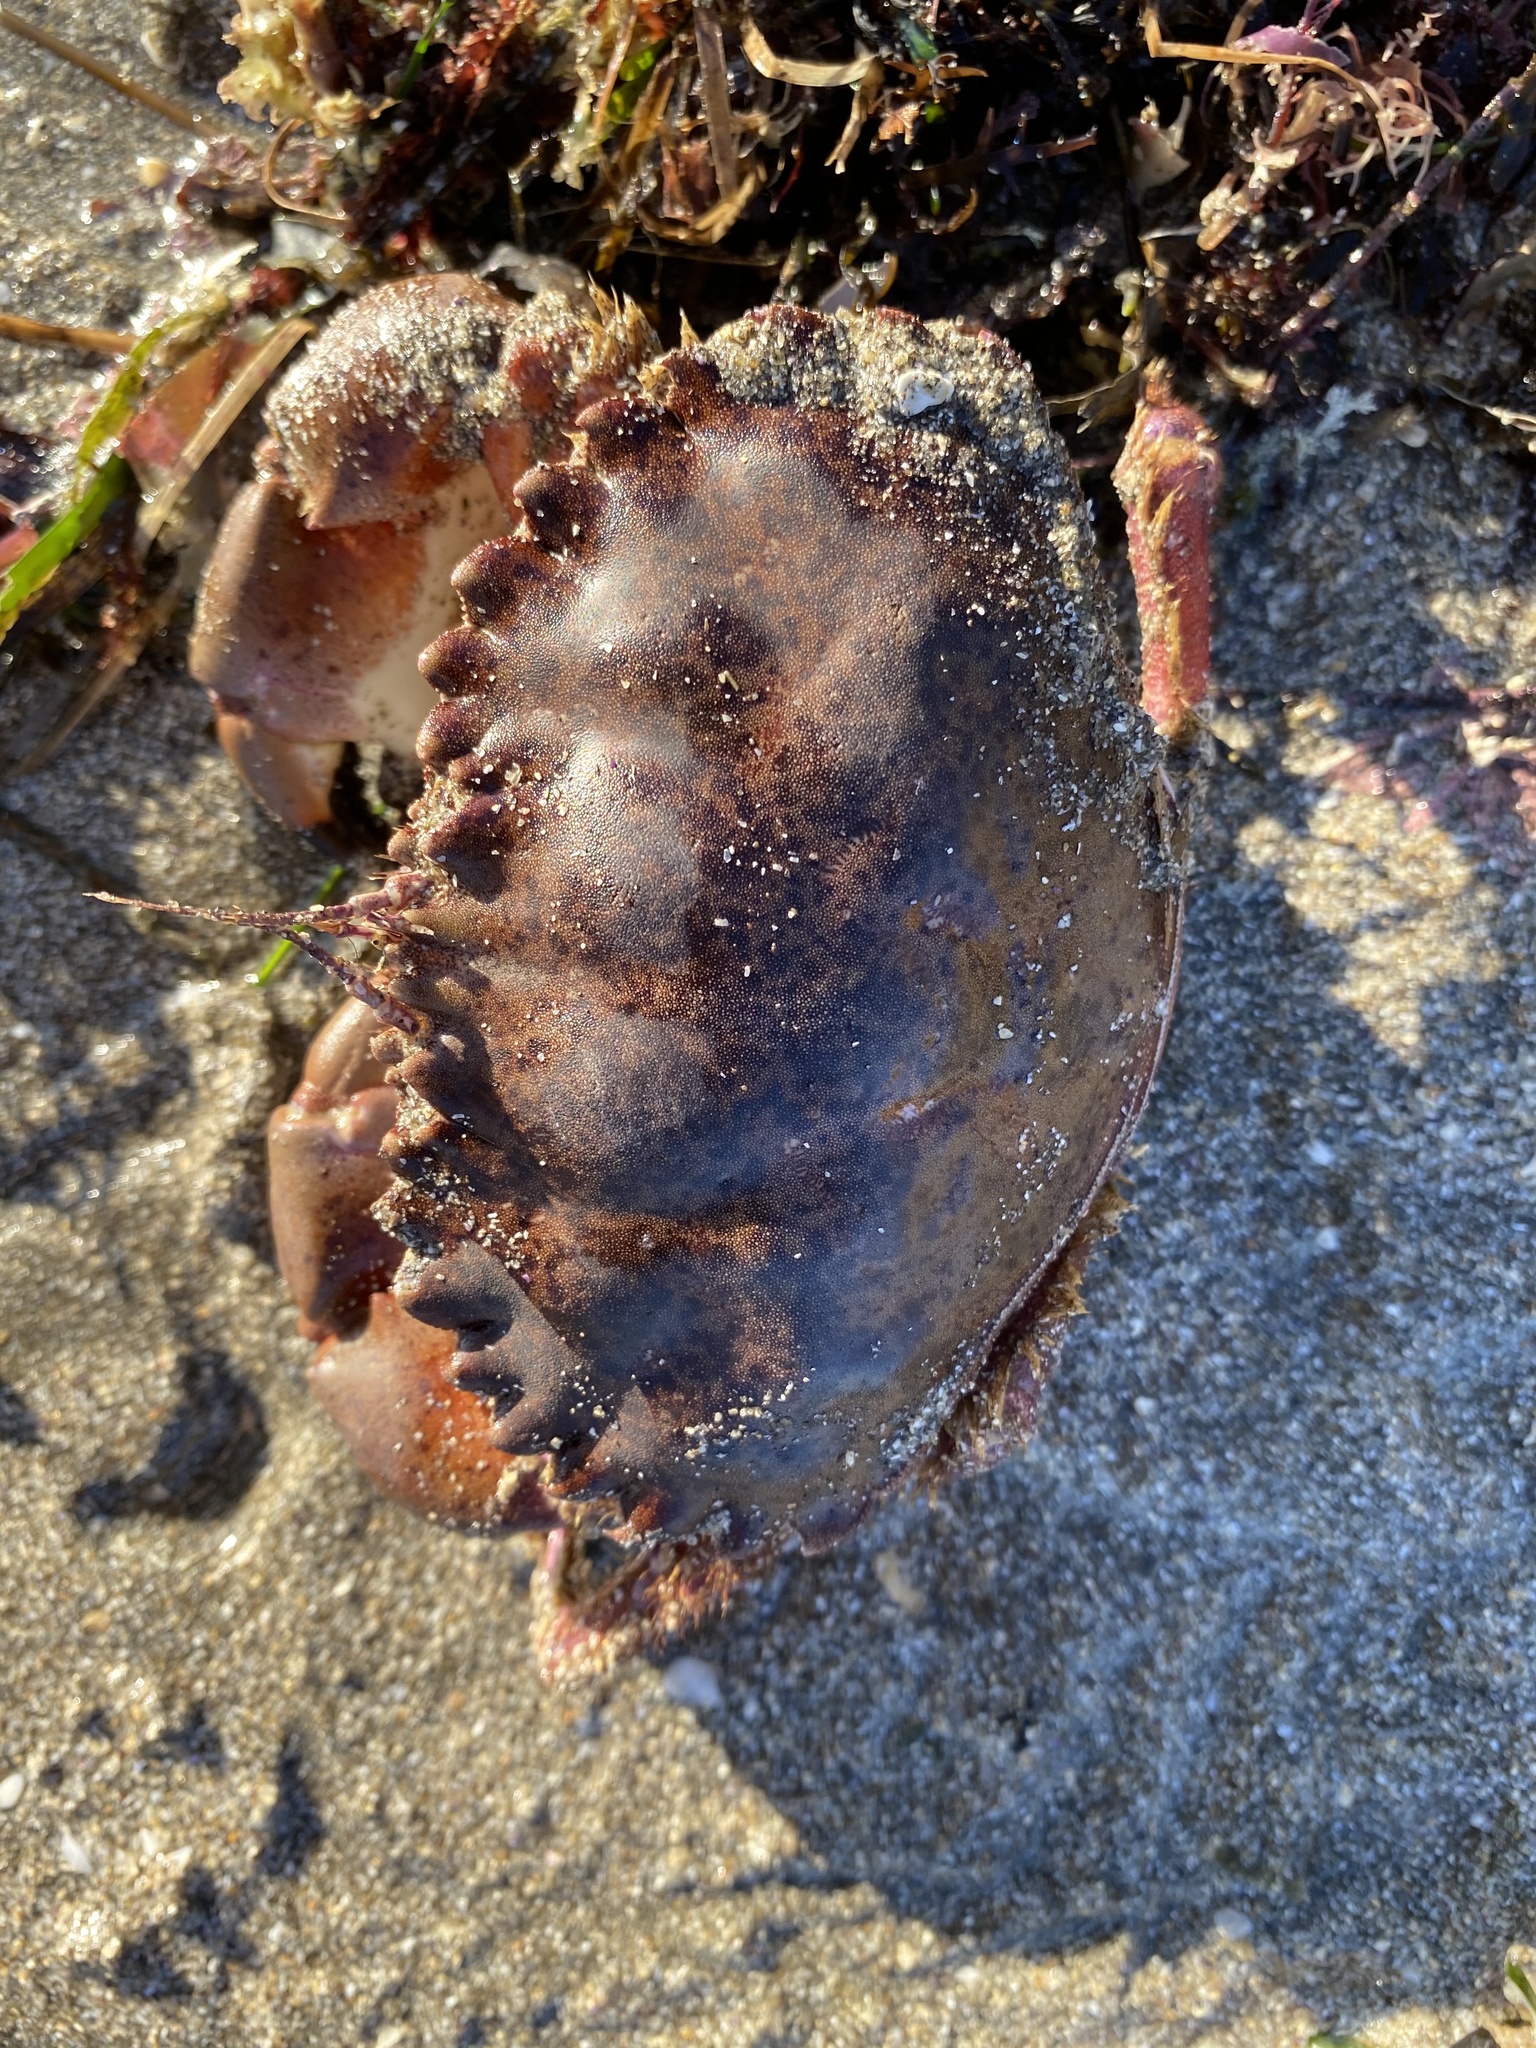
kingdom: Animalia
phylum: Arthropoda
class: Malacostraca
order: Decapoda
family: Cancridae
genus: Romaleon
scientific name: Romaleon antennarium
